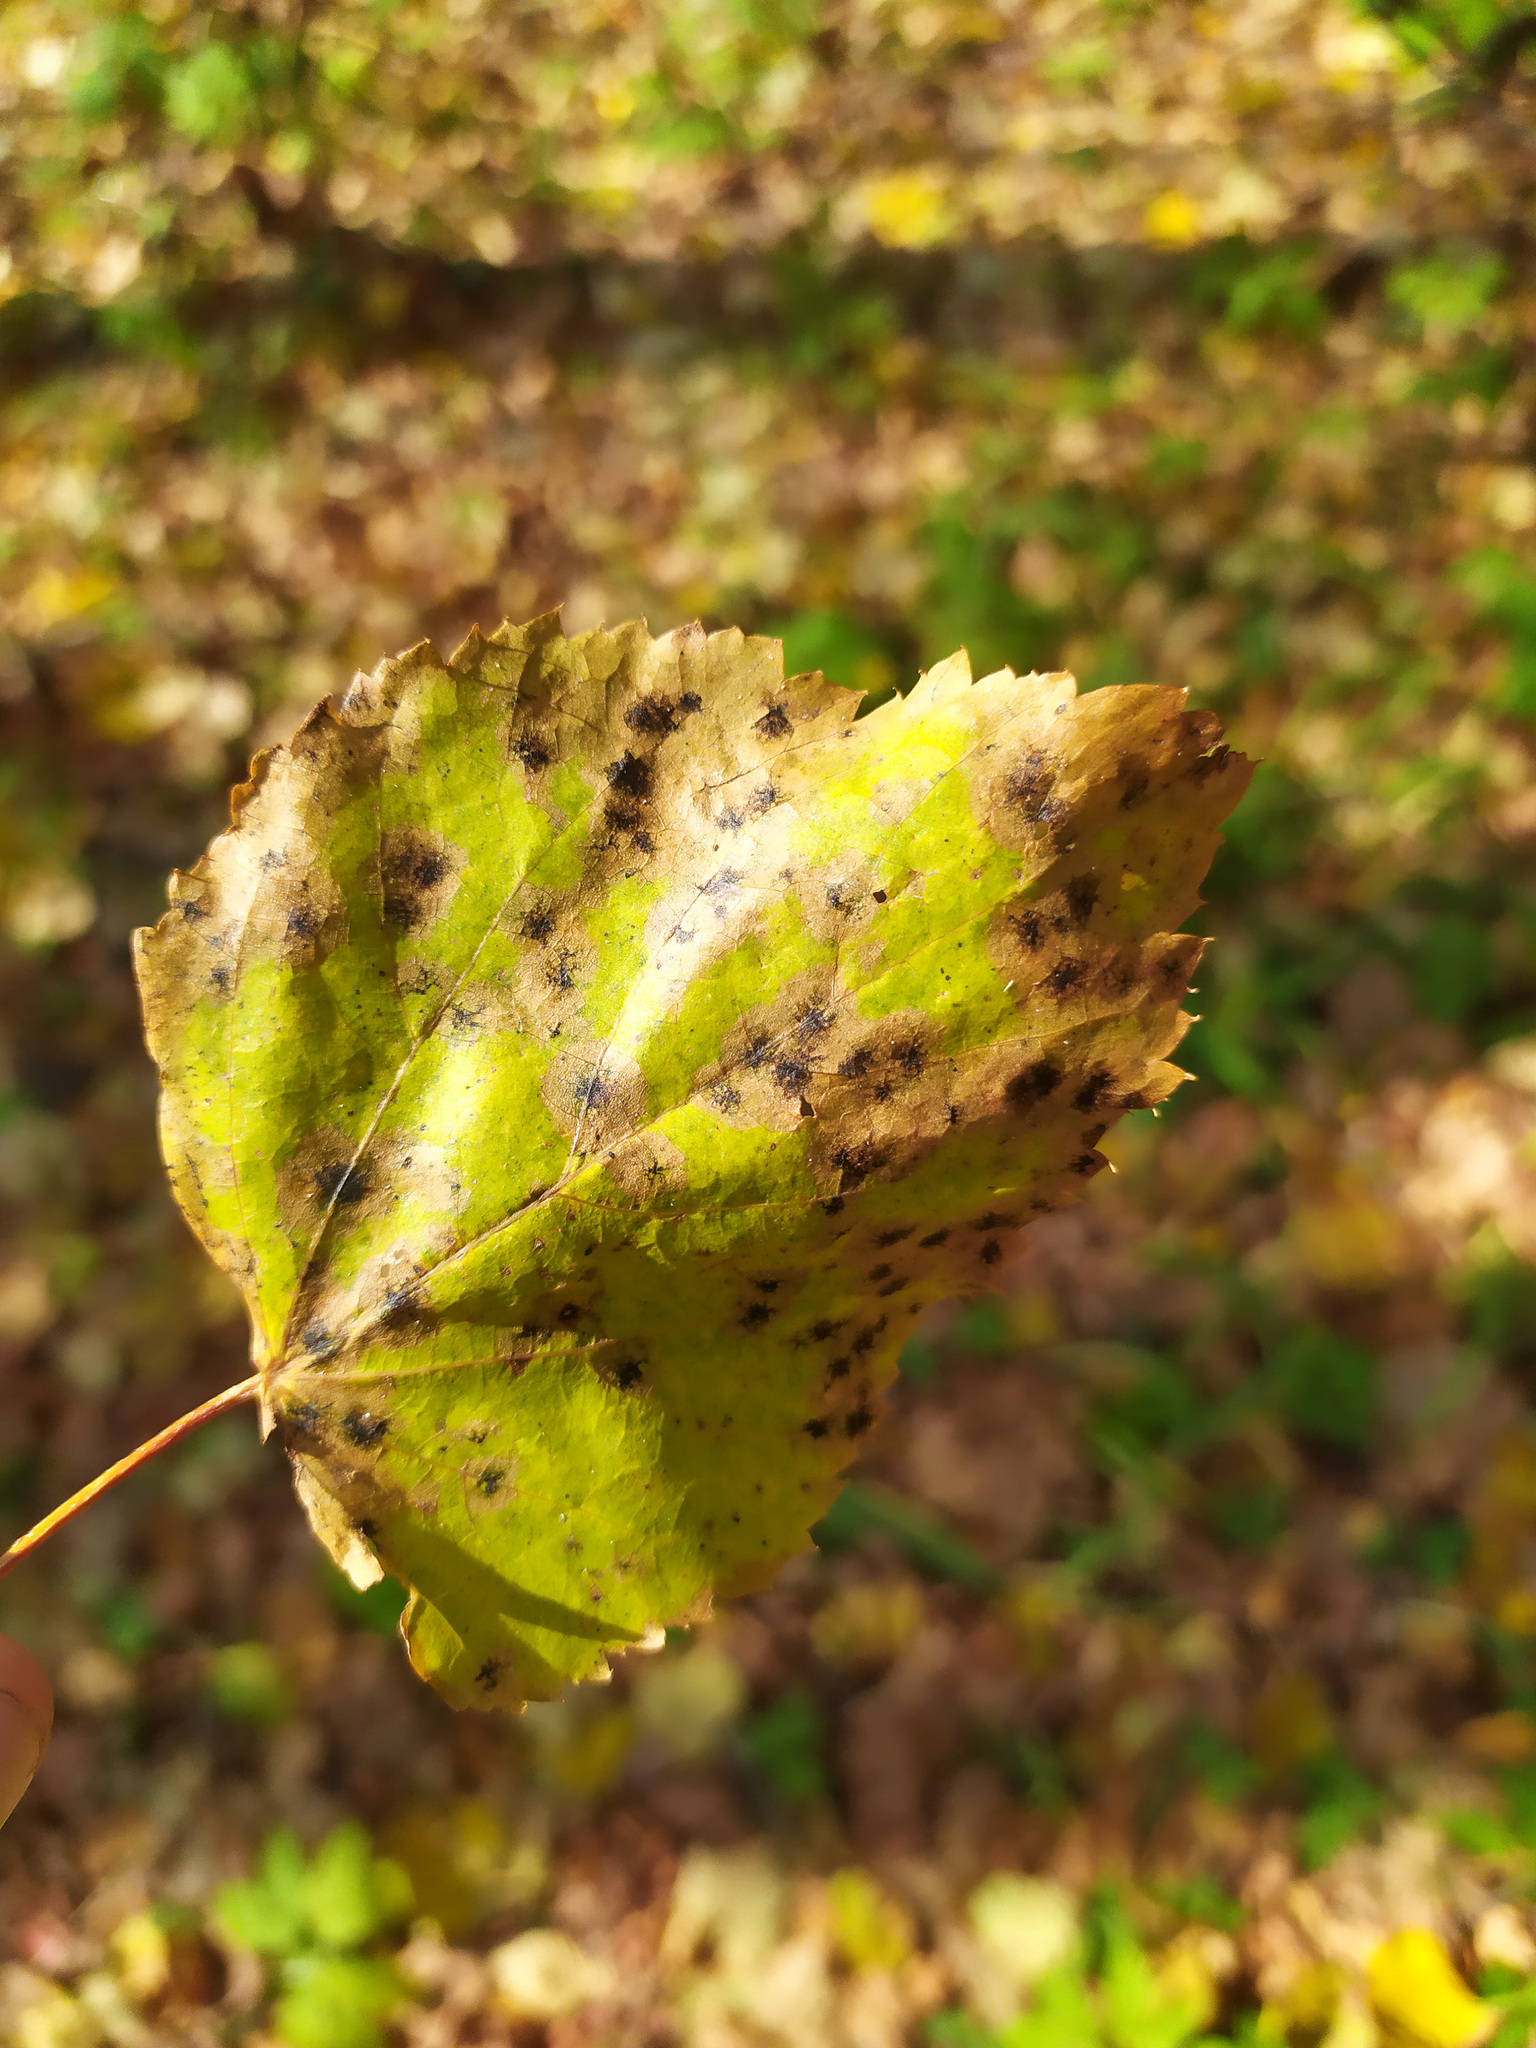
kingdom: Plantae
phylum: Tracheophyta
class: Magnoliopsida
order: Fagales
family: Betulaceae
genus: Betula
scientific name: Betula
